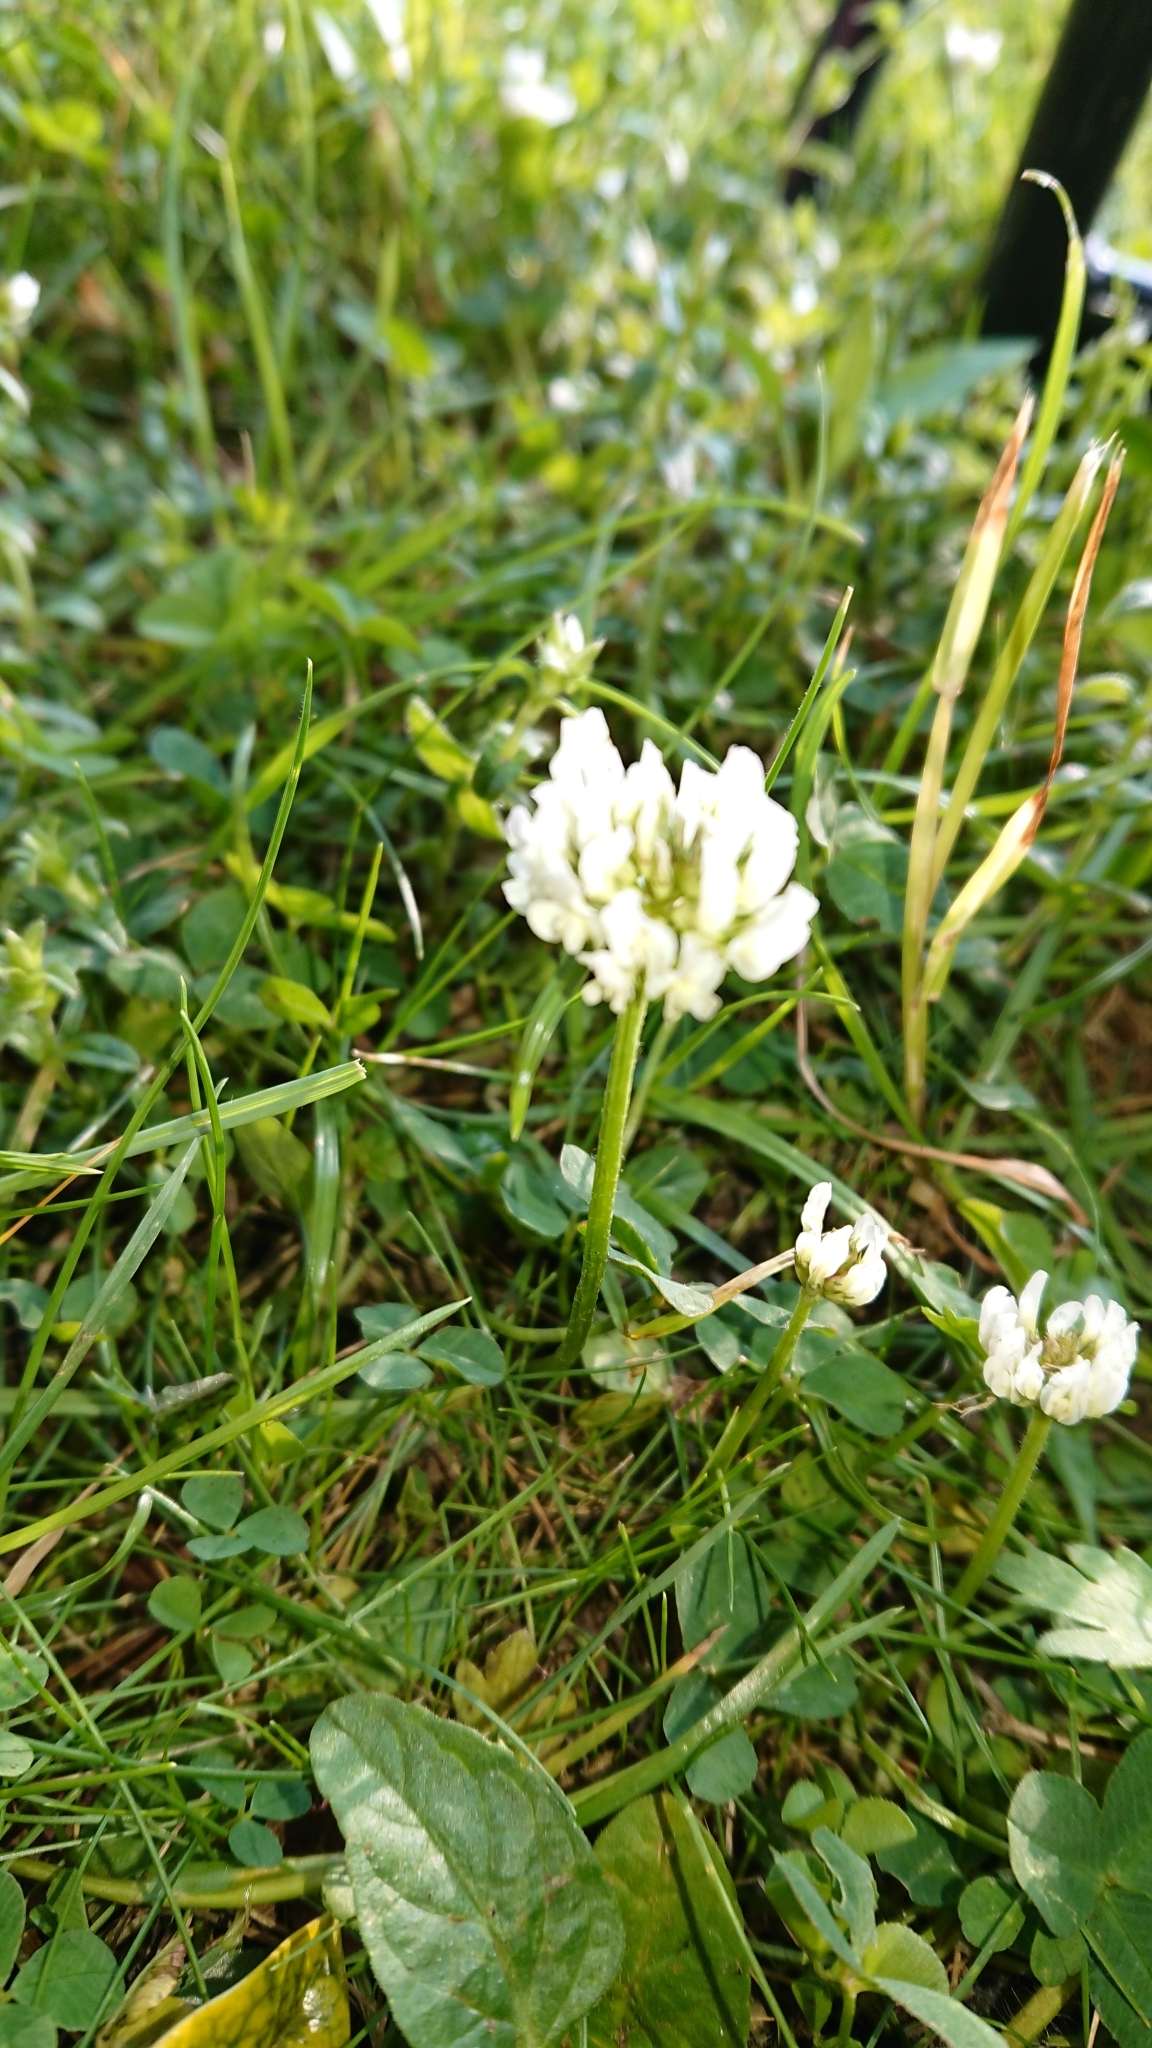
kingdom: Plantae
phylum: Tracheophyta
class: Magnoliopsida
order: Fabales
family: Fabaceae
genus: Trifolium
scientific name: Trifolium repens
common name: White clover
